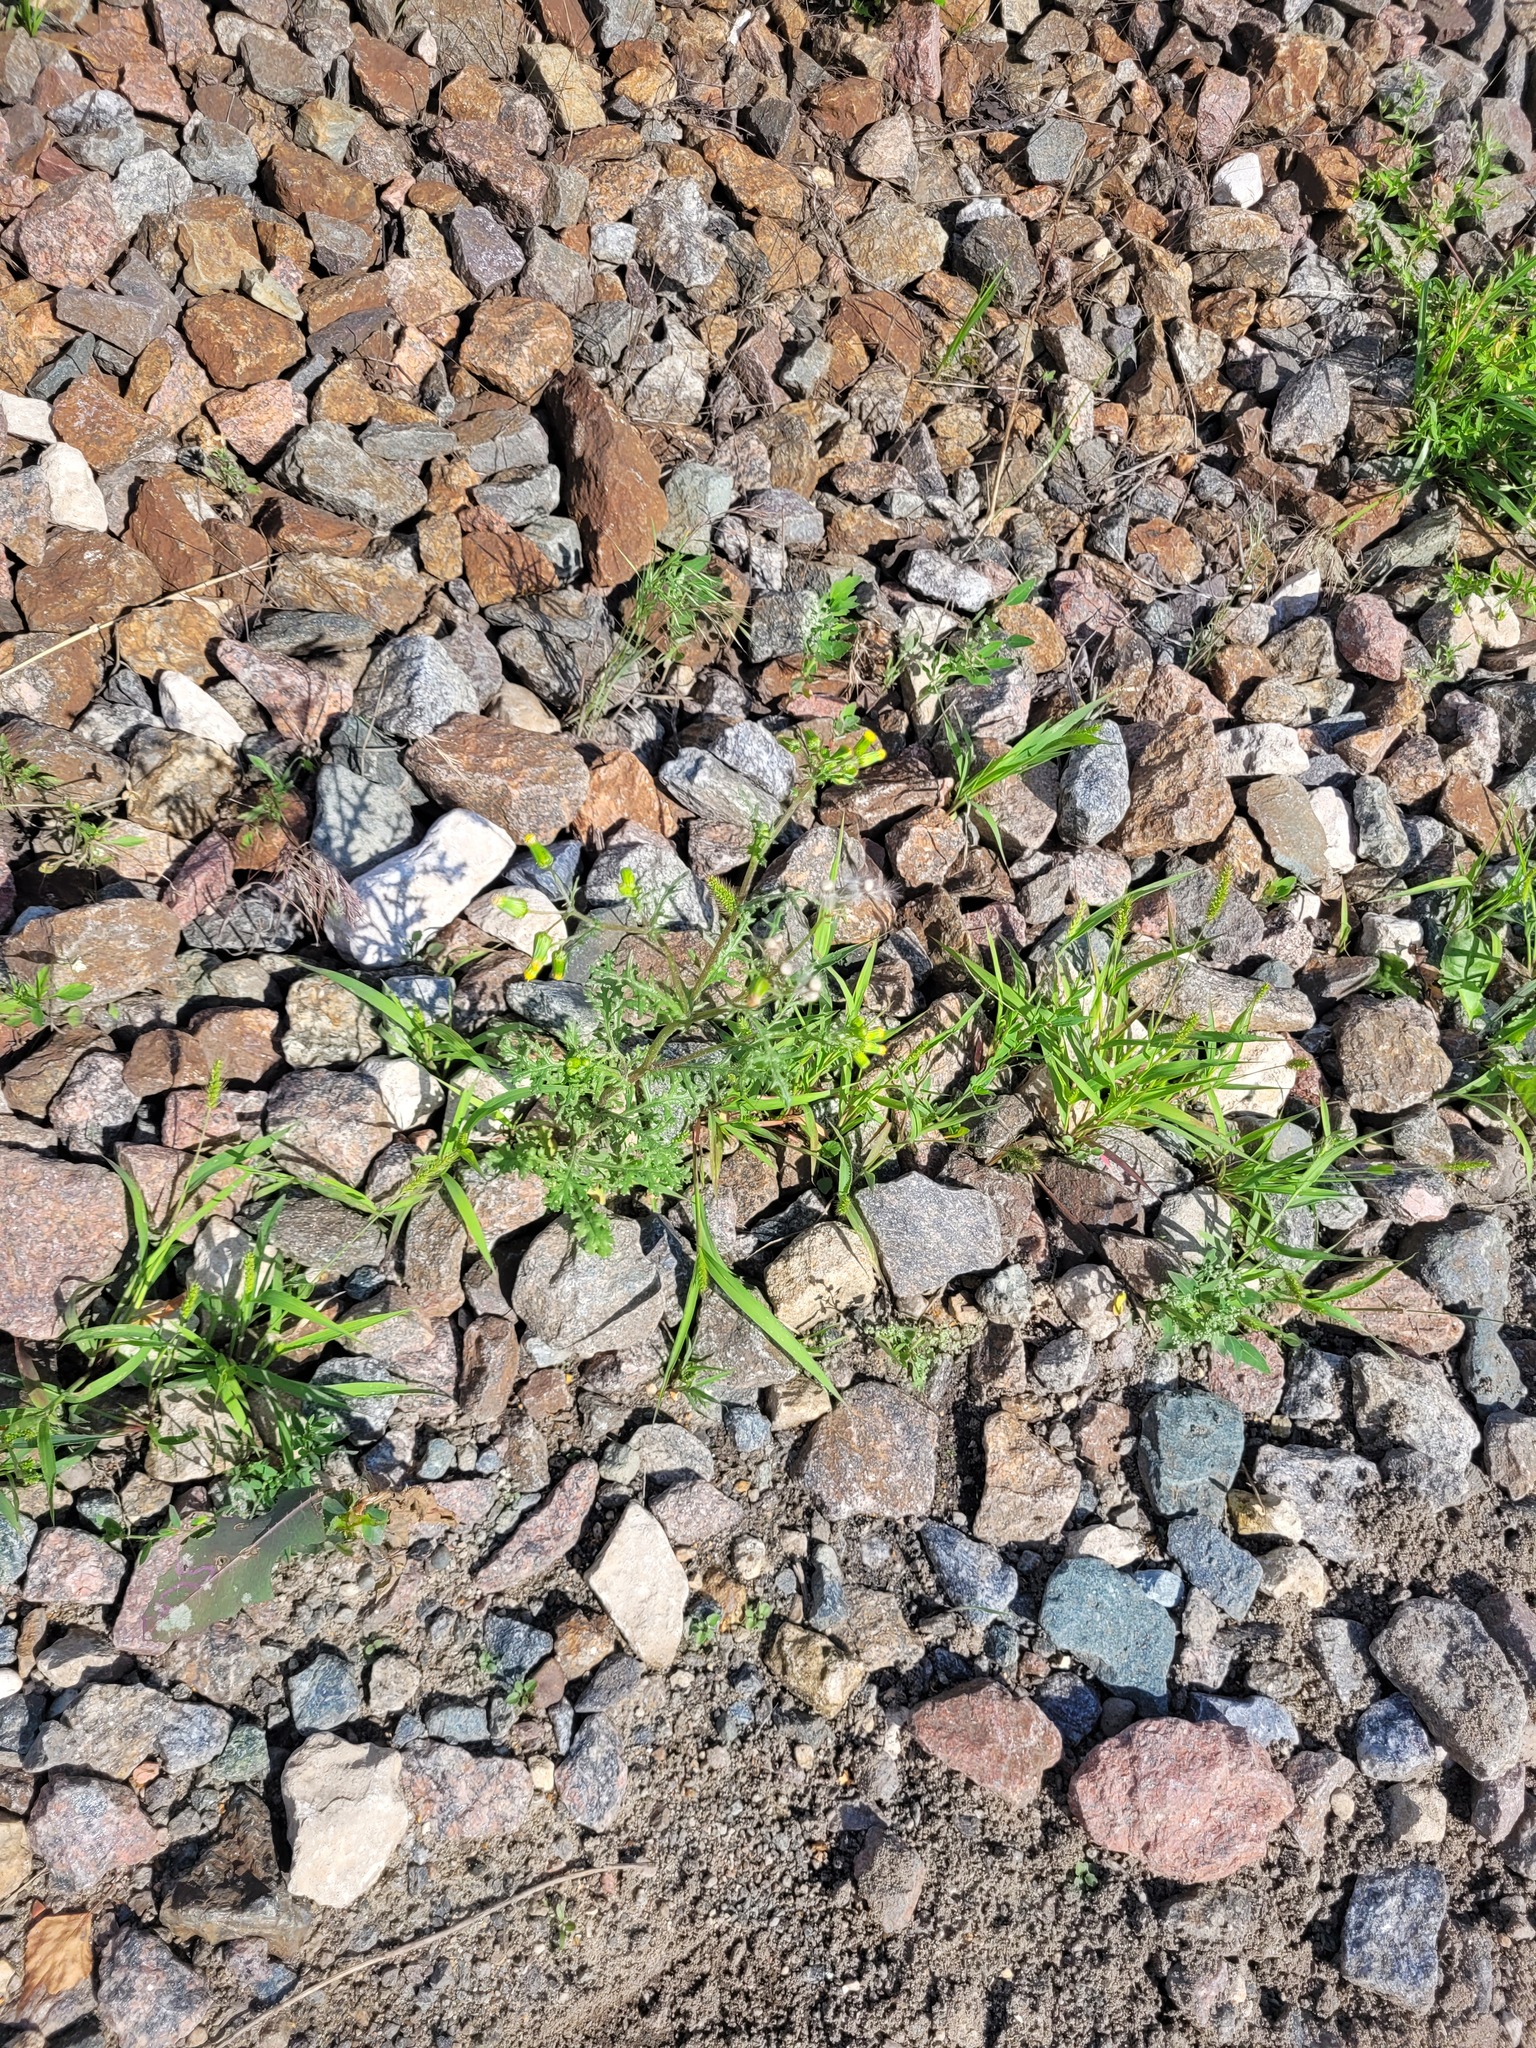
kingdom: Plantae
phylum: Tracheophyta
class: Magnoliopsida
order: Asterales
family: Asteraceae
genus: Senecio
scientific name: Senecio vulgaris
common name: Old-man-in-the-spring
